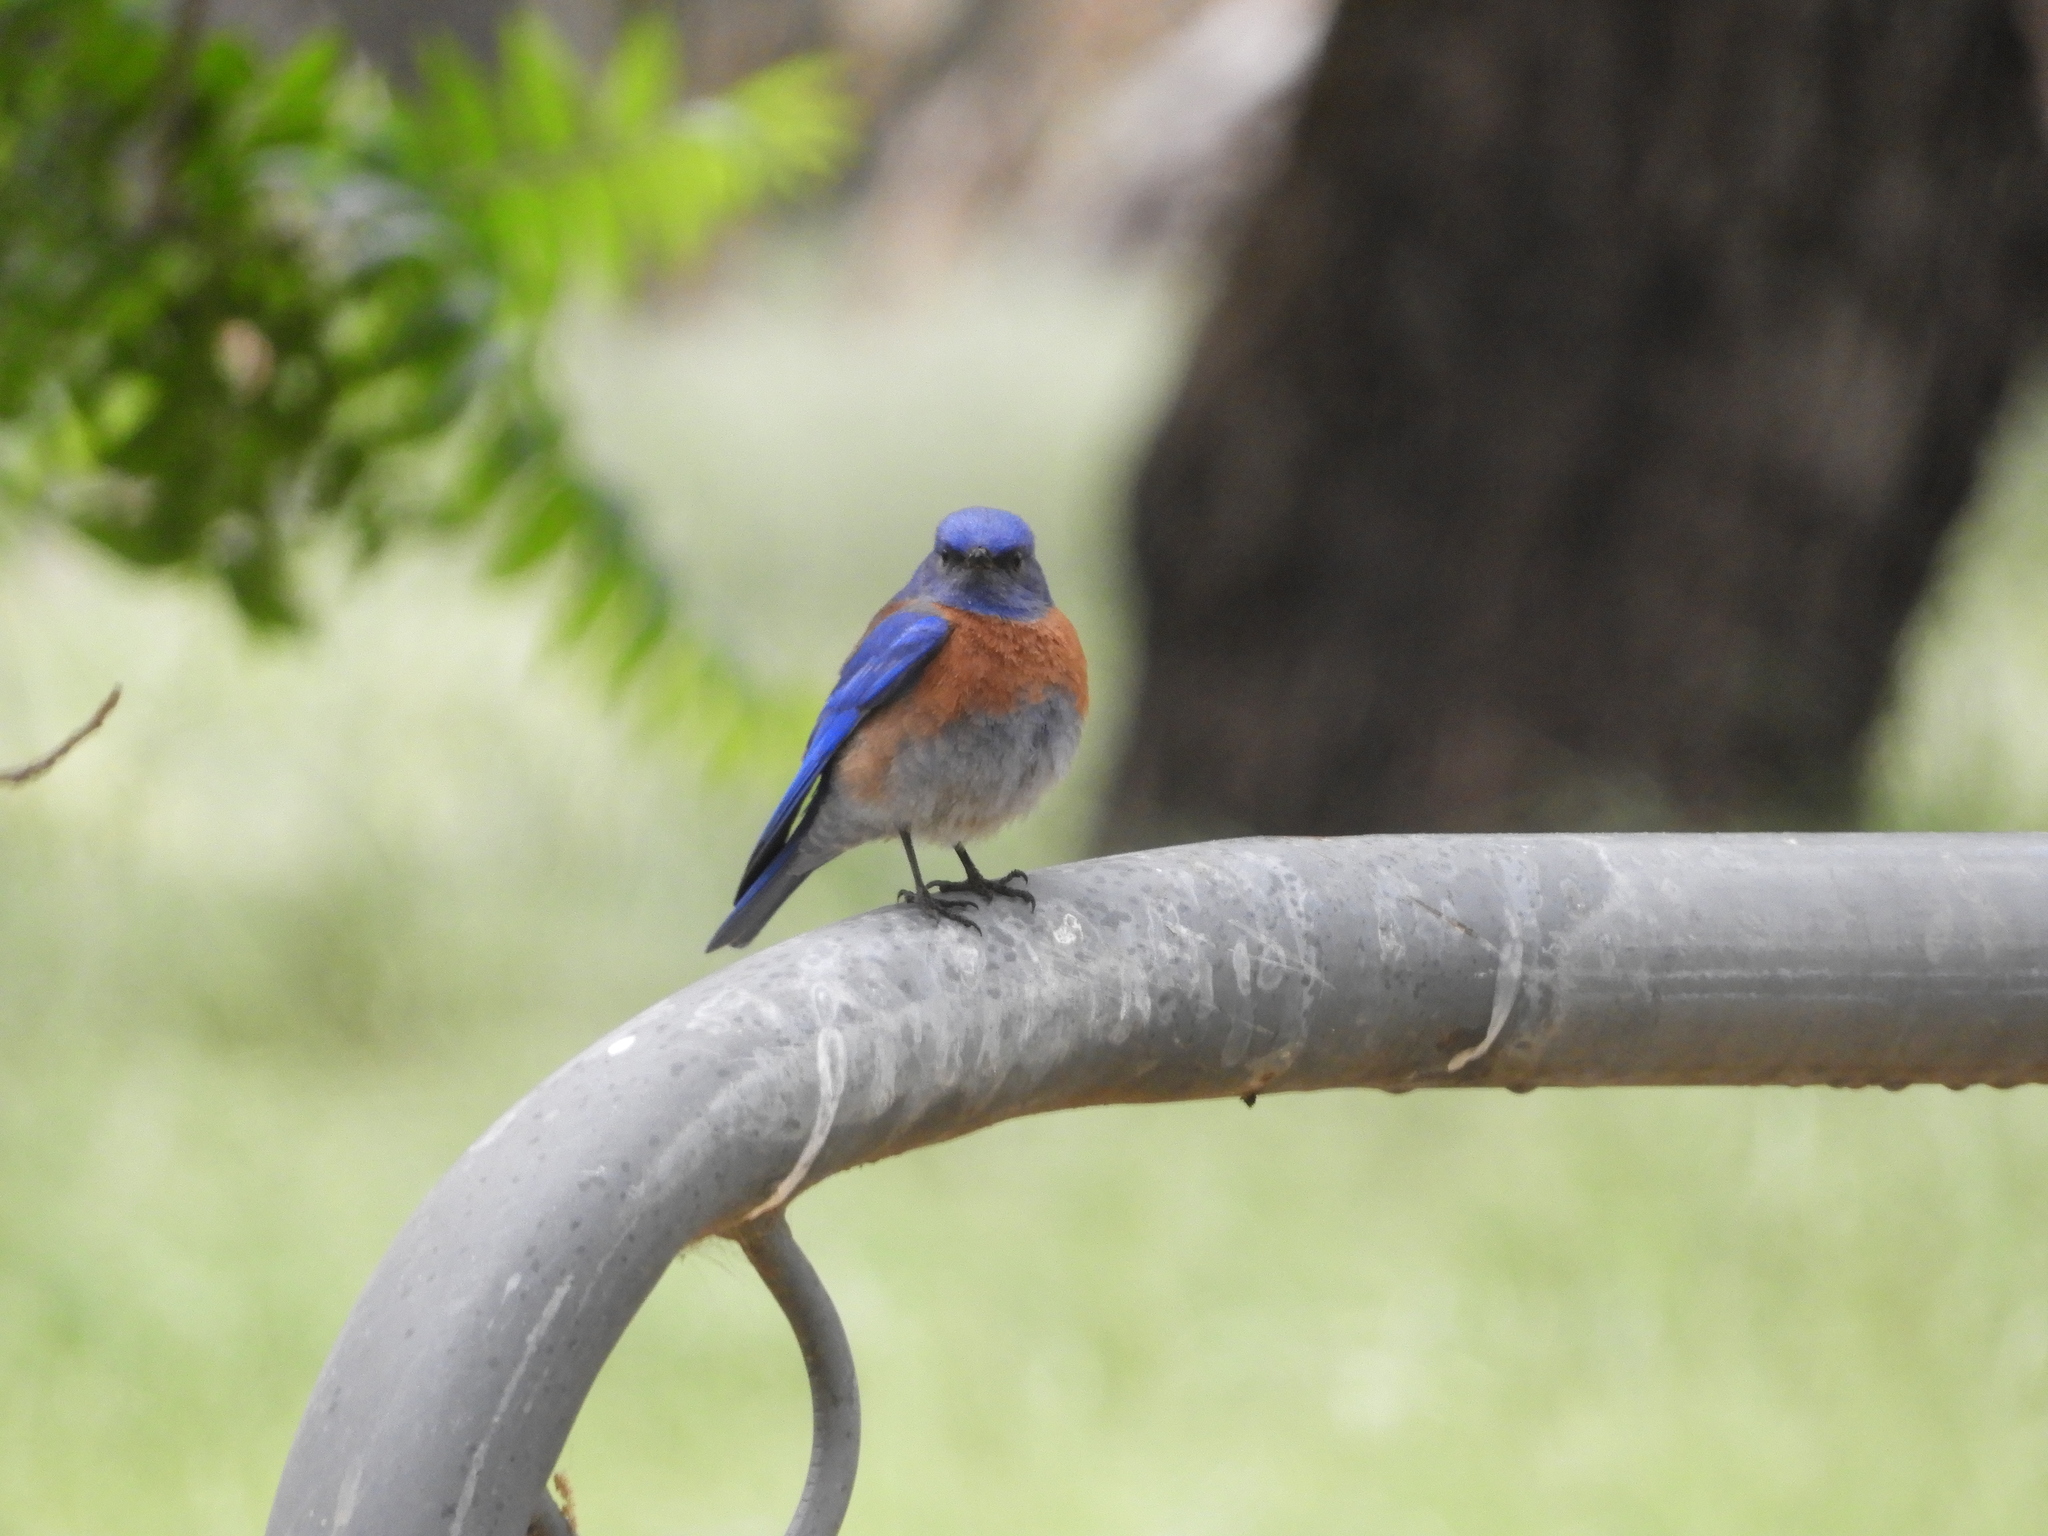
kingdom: Animalia
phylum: Chordata
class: Aves
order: Passeriformes
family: Turdidae
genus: Sialia
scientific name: Sialia mexicana
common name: Western bluebird
